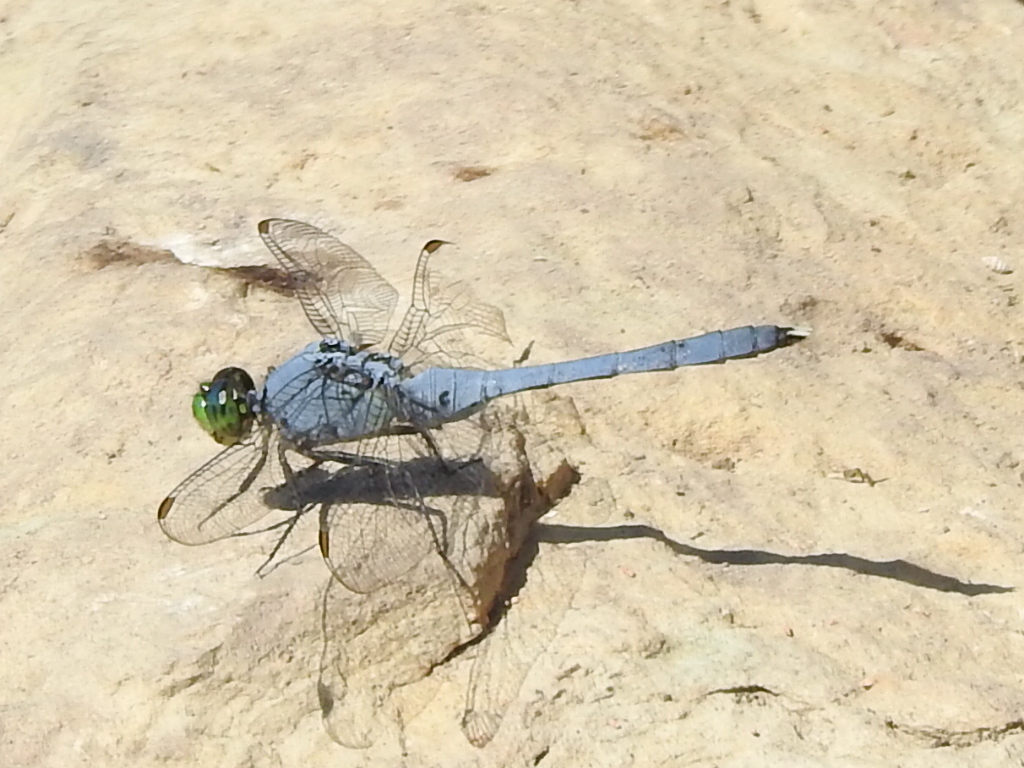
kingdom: Animalia
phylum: Arthropoda
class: Insecta
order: Odonata
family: Libellulidae
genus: Erythemis
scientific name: Erythemis simplicicollis
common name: Eastern pondhawk
